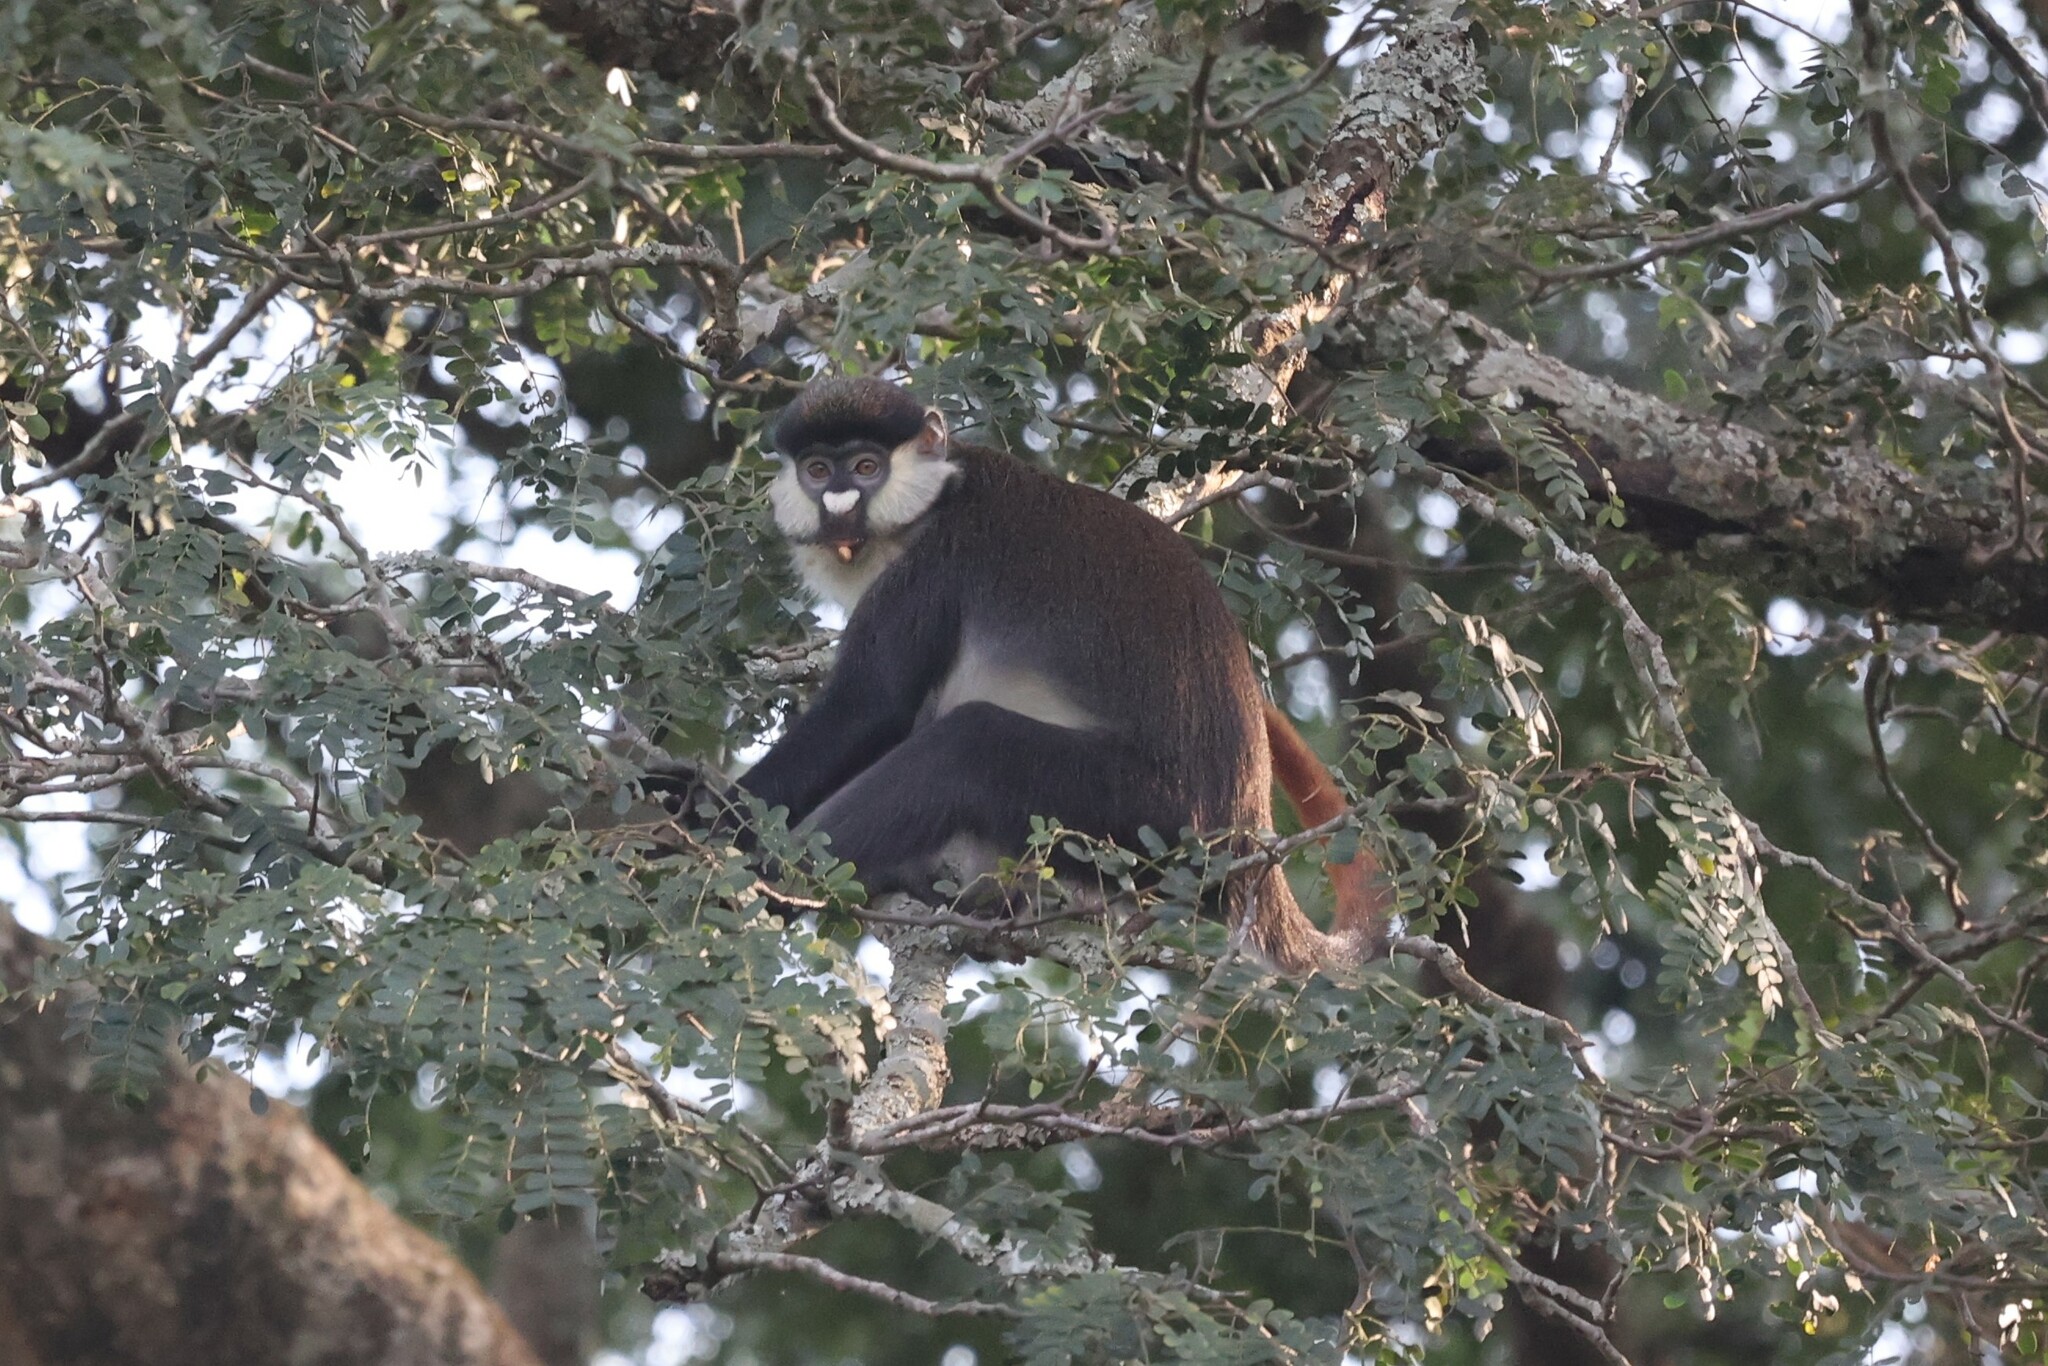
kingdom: Animalia
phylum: Chordata
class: Mammalia
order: Primates
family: Cercopithecidae
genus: Cercopithecus
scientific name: Cercopithecus ascanius
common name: Red-tailed monkey
